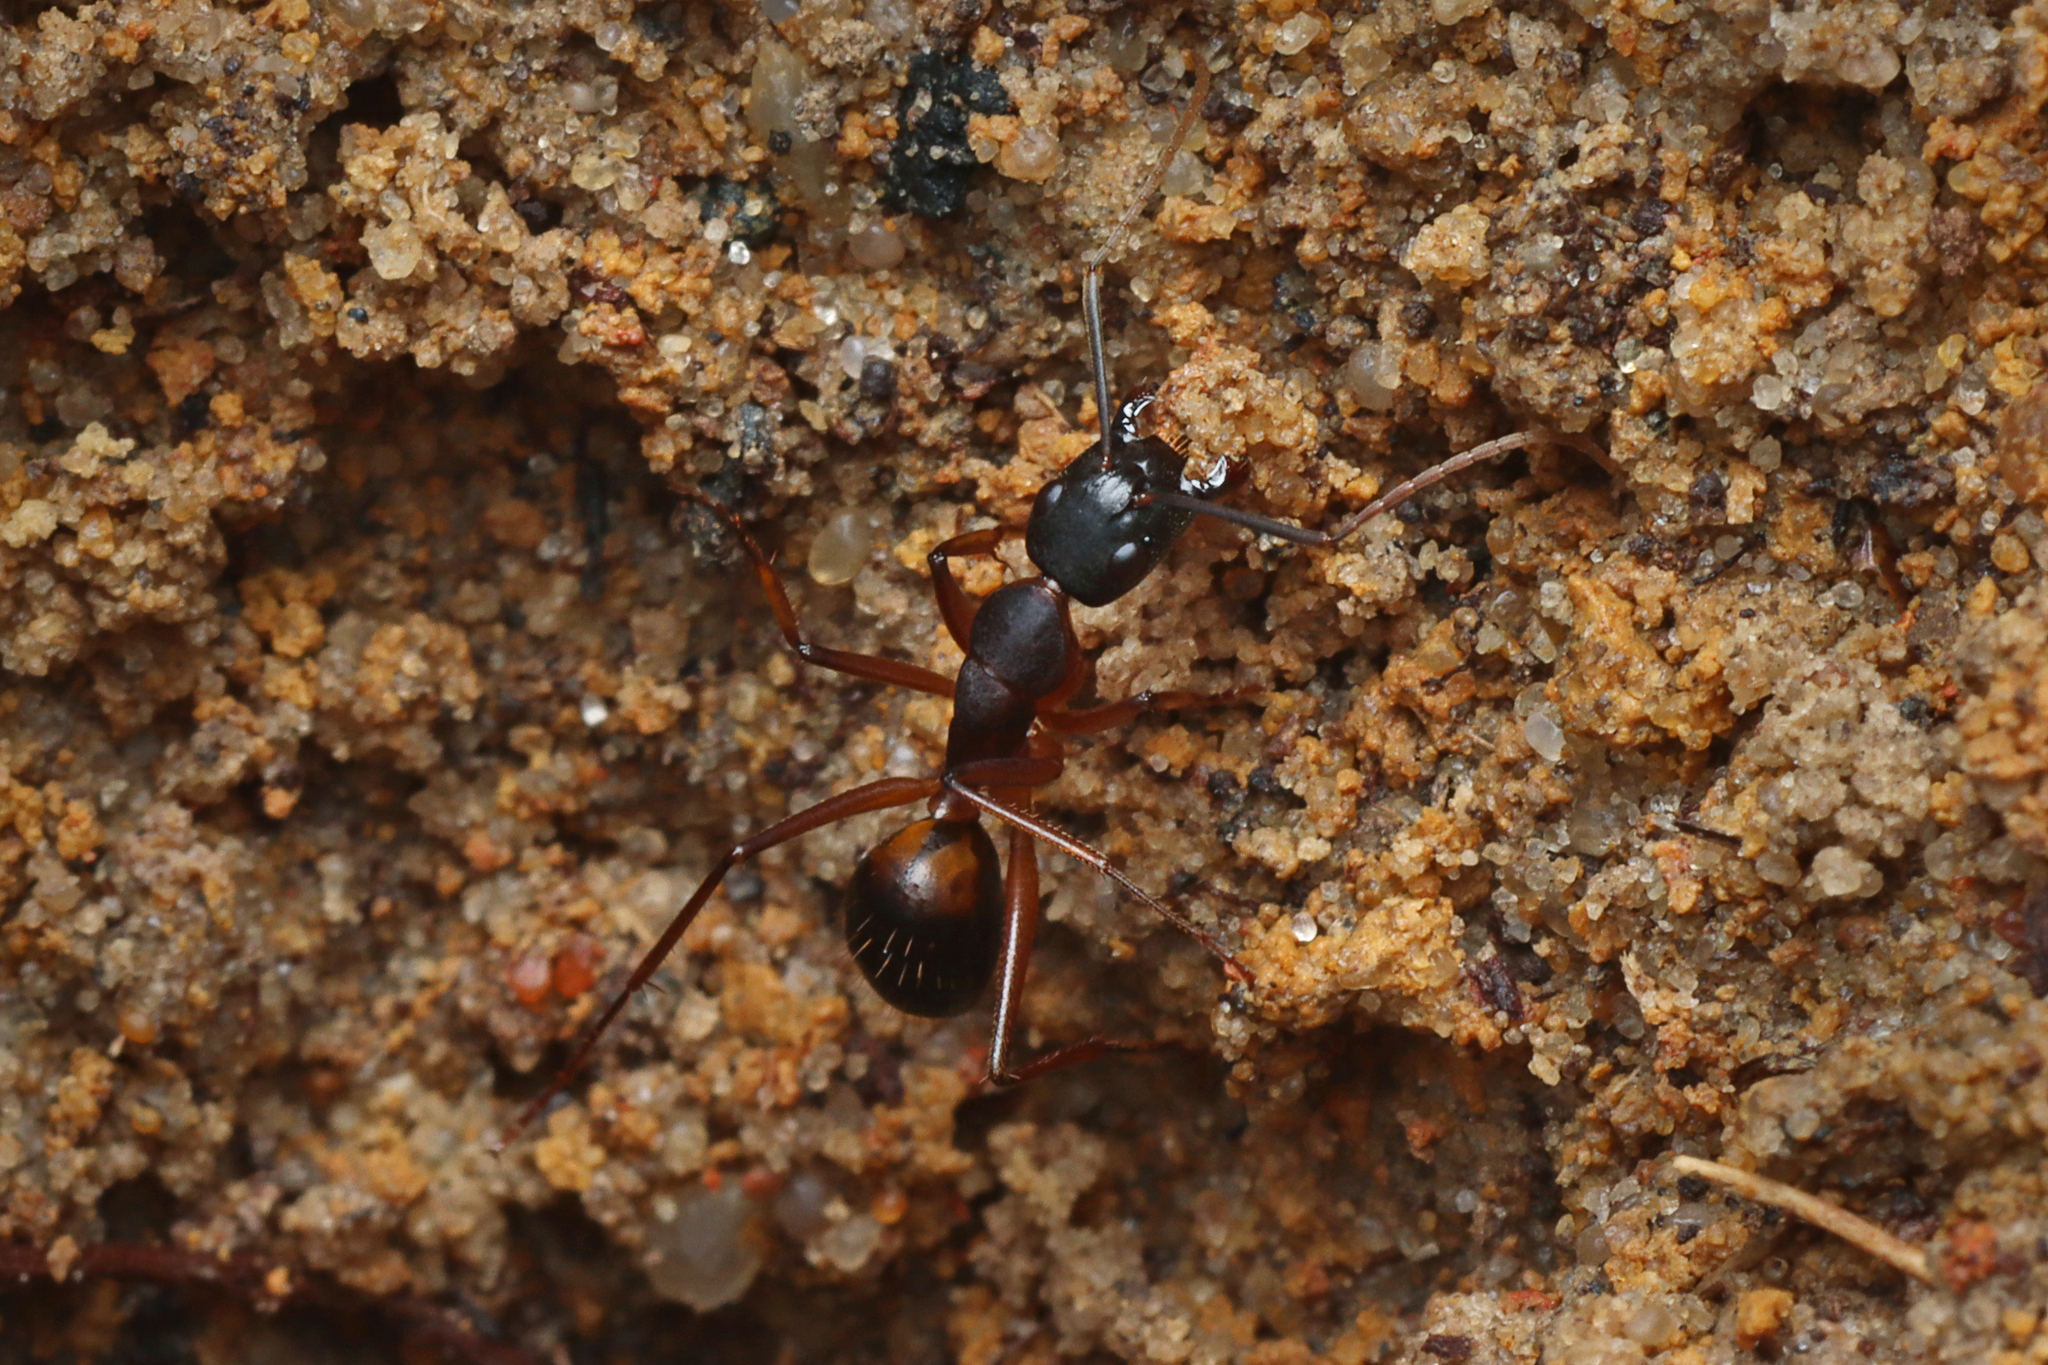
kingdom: Animalia
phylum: Arthropoda
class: Insecta
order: Hymenoptera
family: Formicidae
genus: Camponotus
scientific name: Camponotus consobrinus
